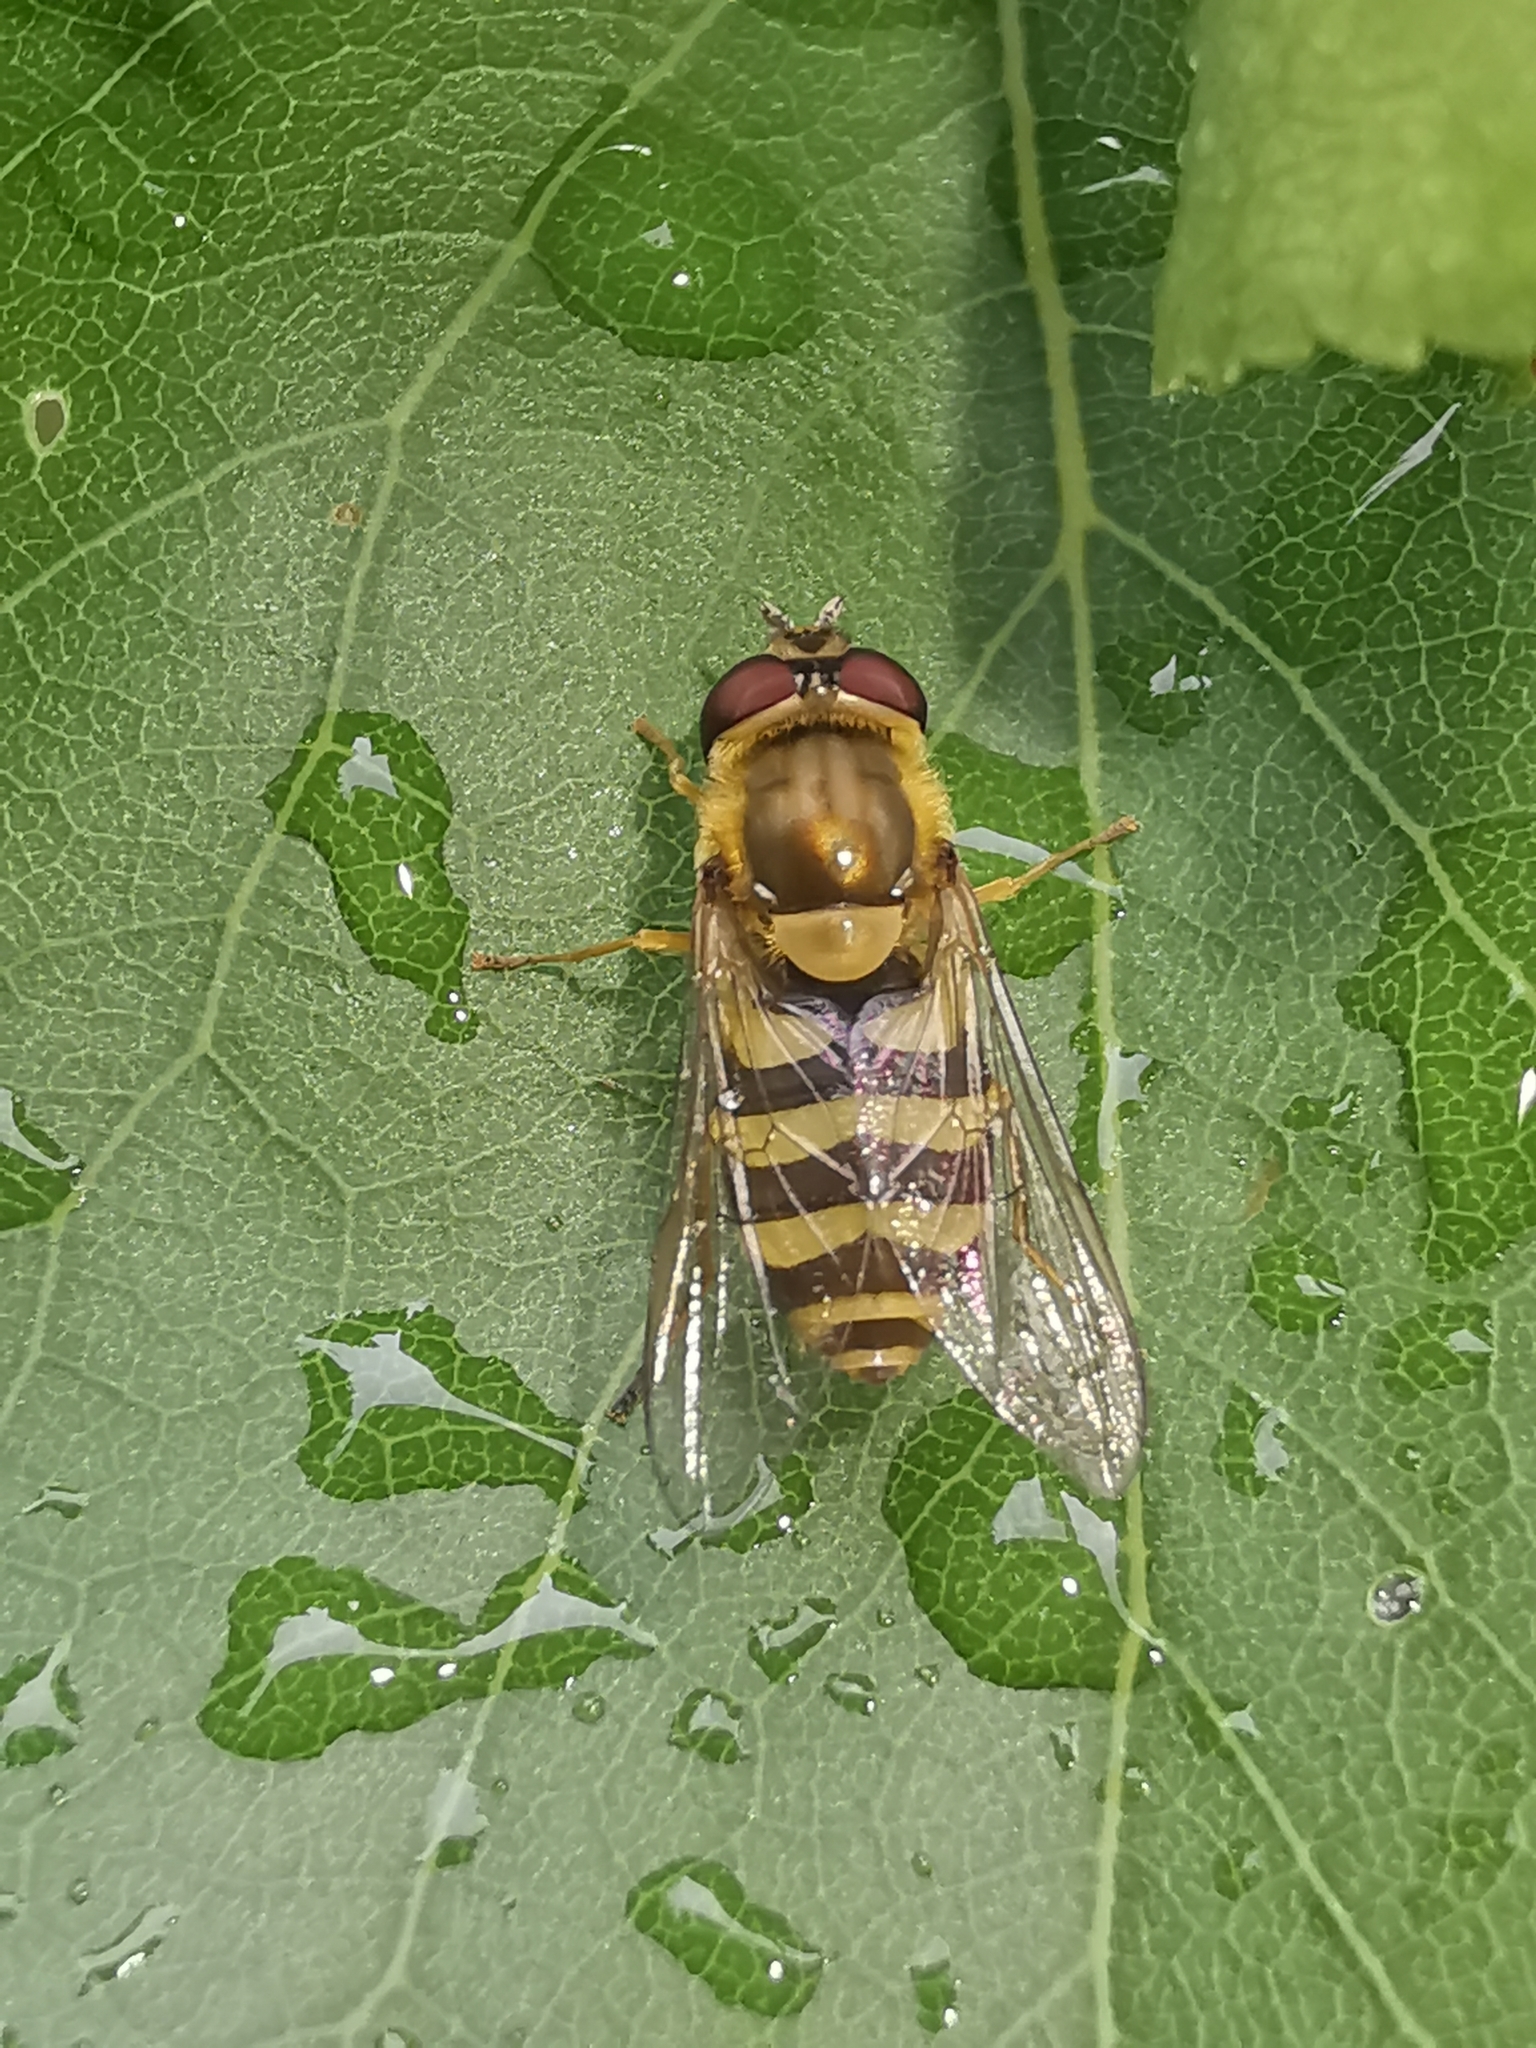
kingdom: Animalia
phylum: Arthropoda
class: Insecta
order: Diptera
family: Syrphidae
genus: Syrphus
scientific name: Syrphus
